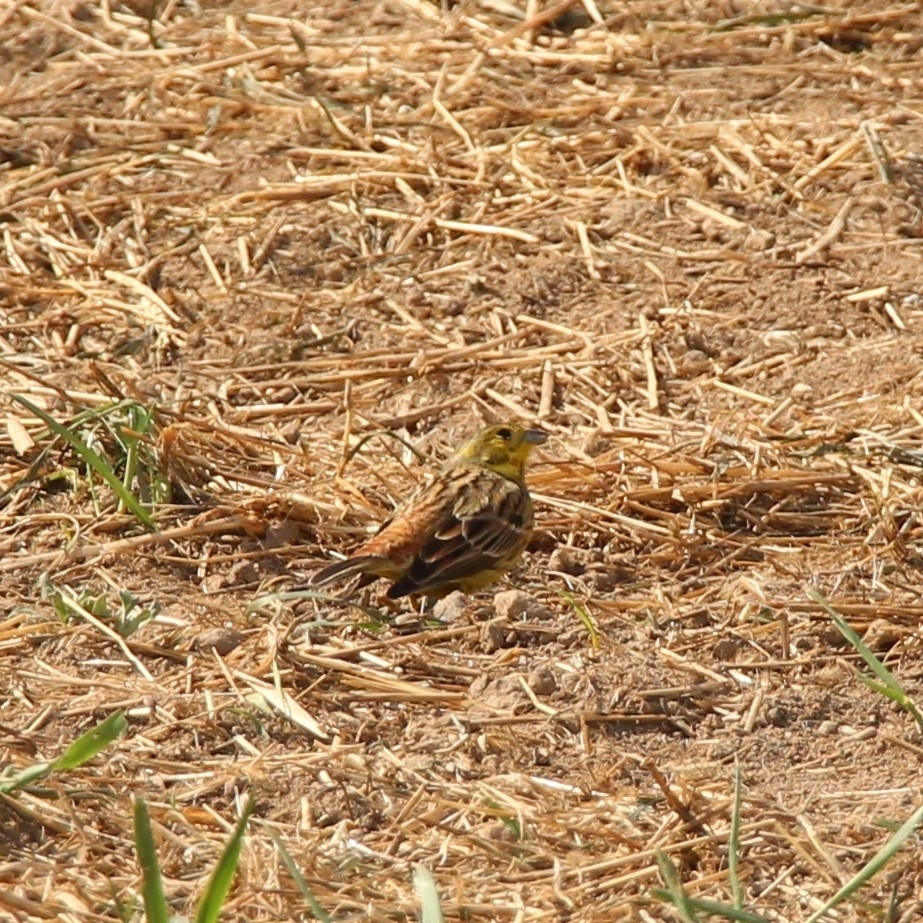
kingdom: Animalia
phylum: Chordata
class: Aves
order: Passeriformes
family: Emberizidae
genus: Emberiza
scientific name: Emberiza citrinella
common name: Yellowhammer
